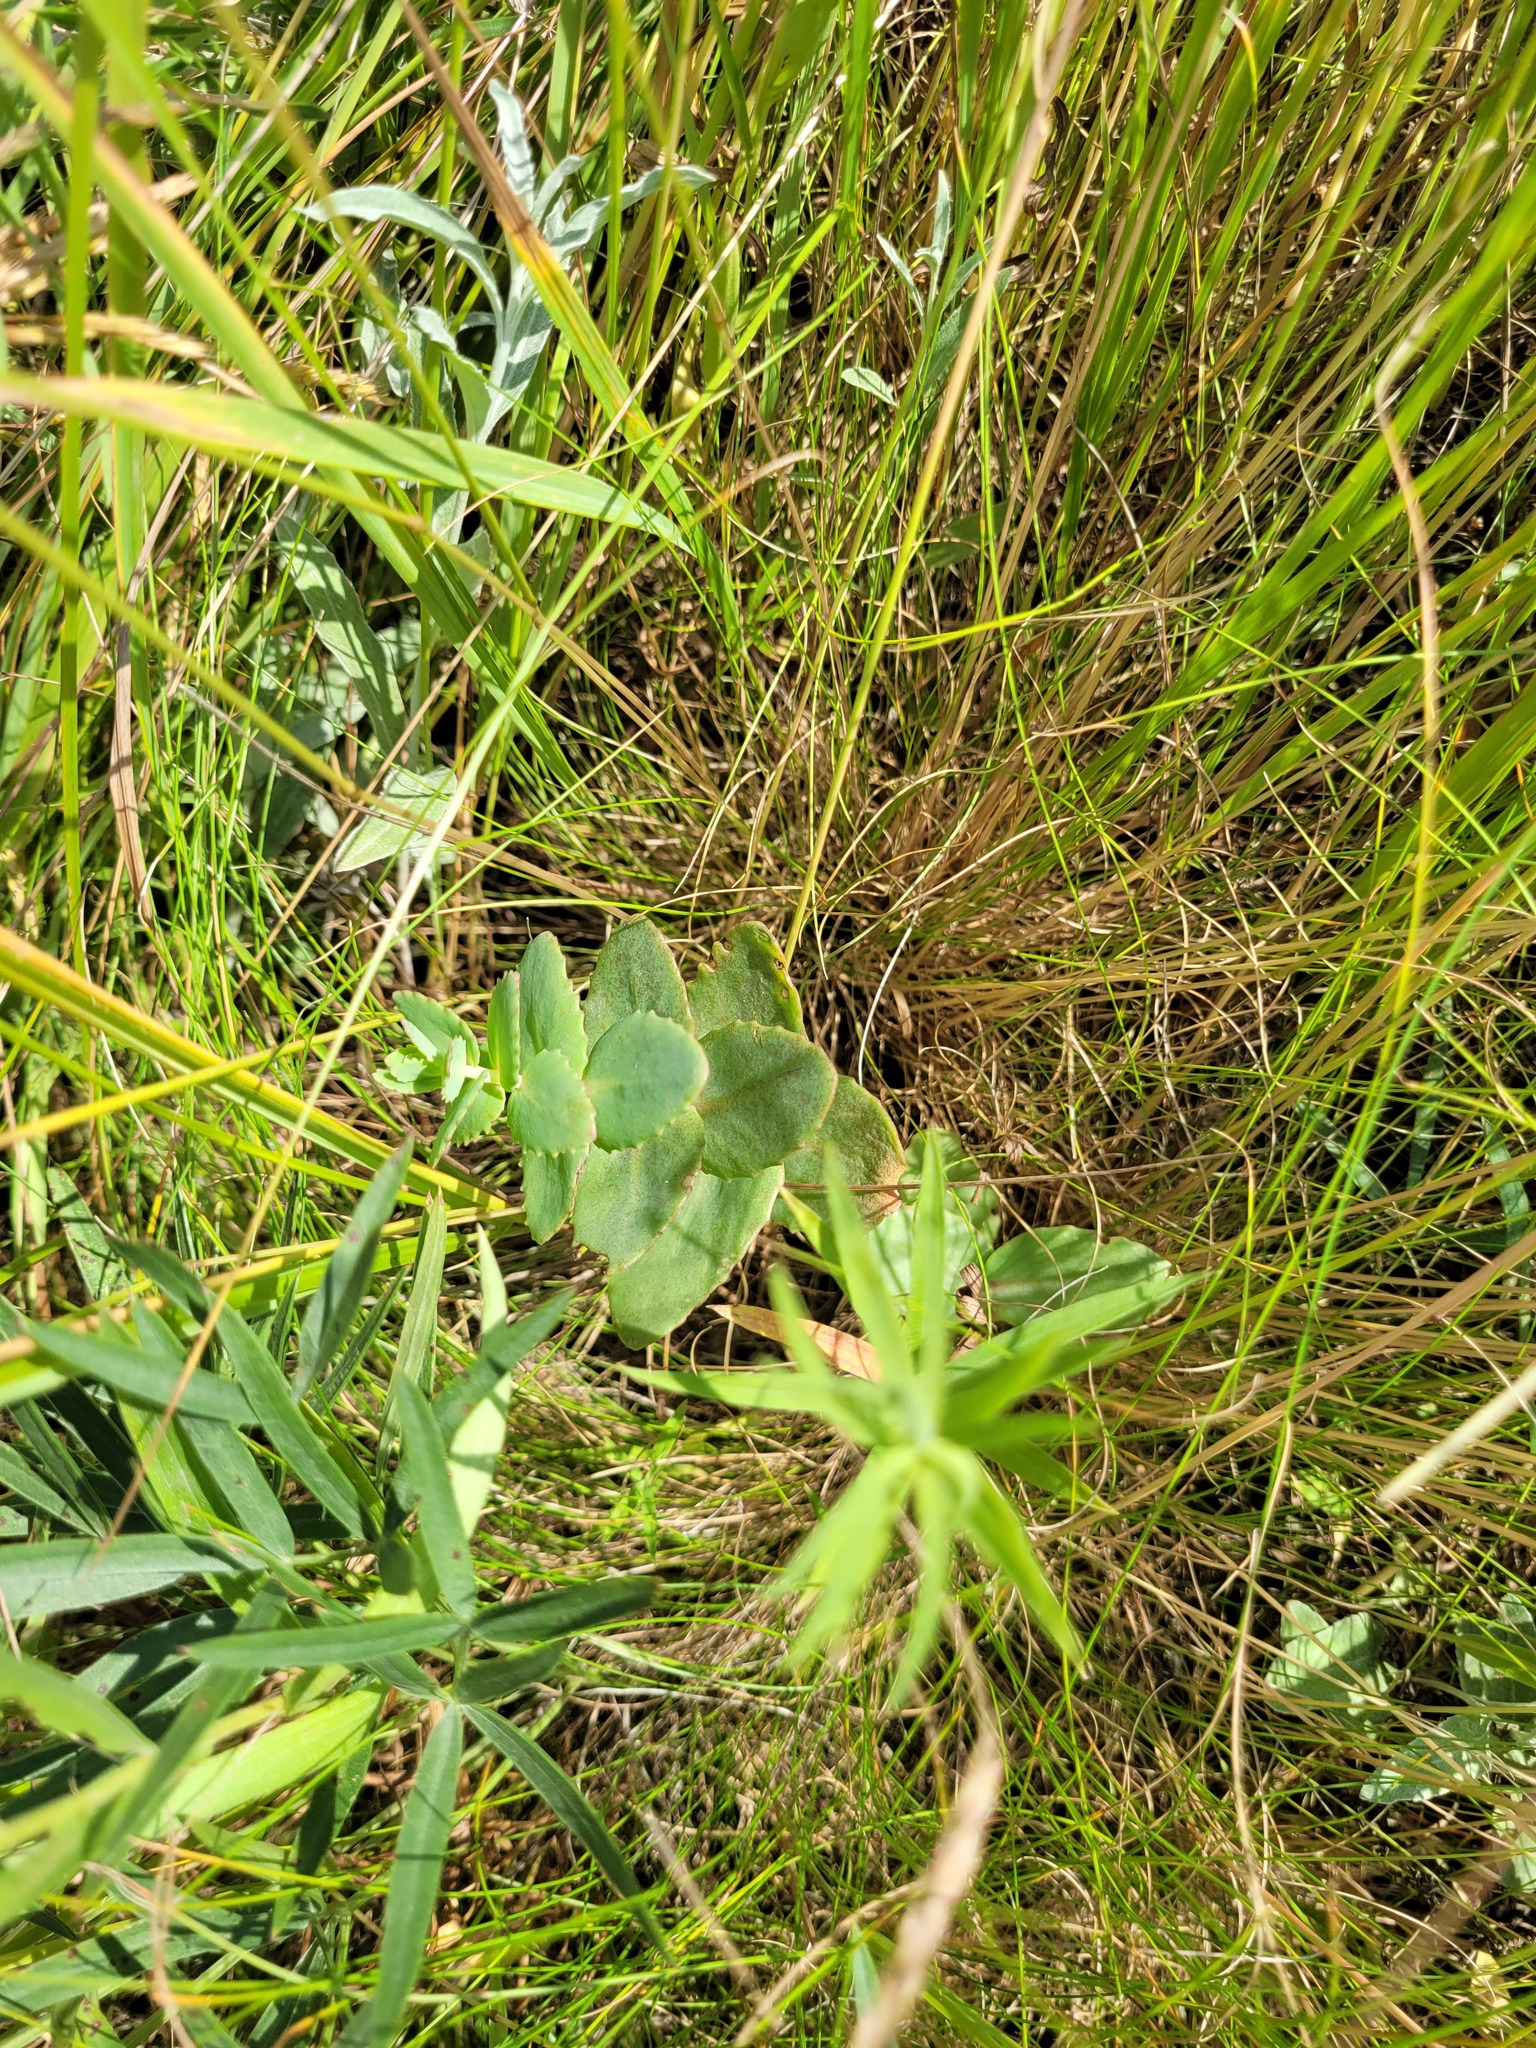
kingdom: Plantae
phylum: Tracheophyta
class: Magnoliopsida
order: Saxifragales
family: Crassulaceae
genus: Hylotelephium
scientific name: Hylotelephium maximum
